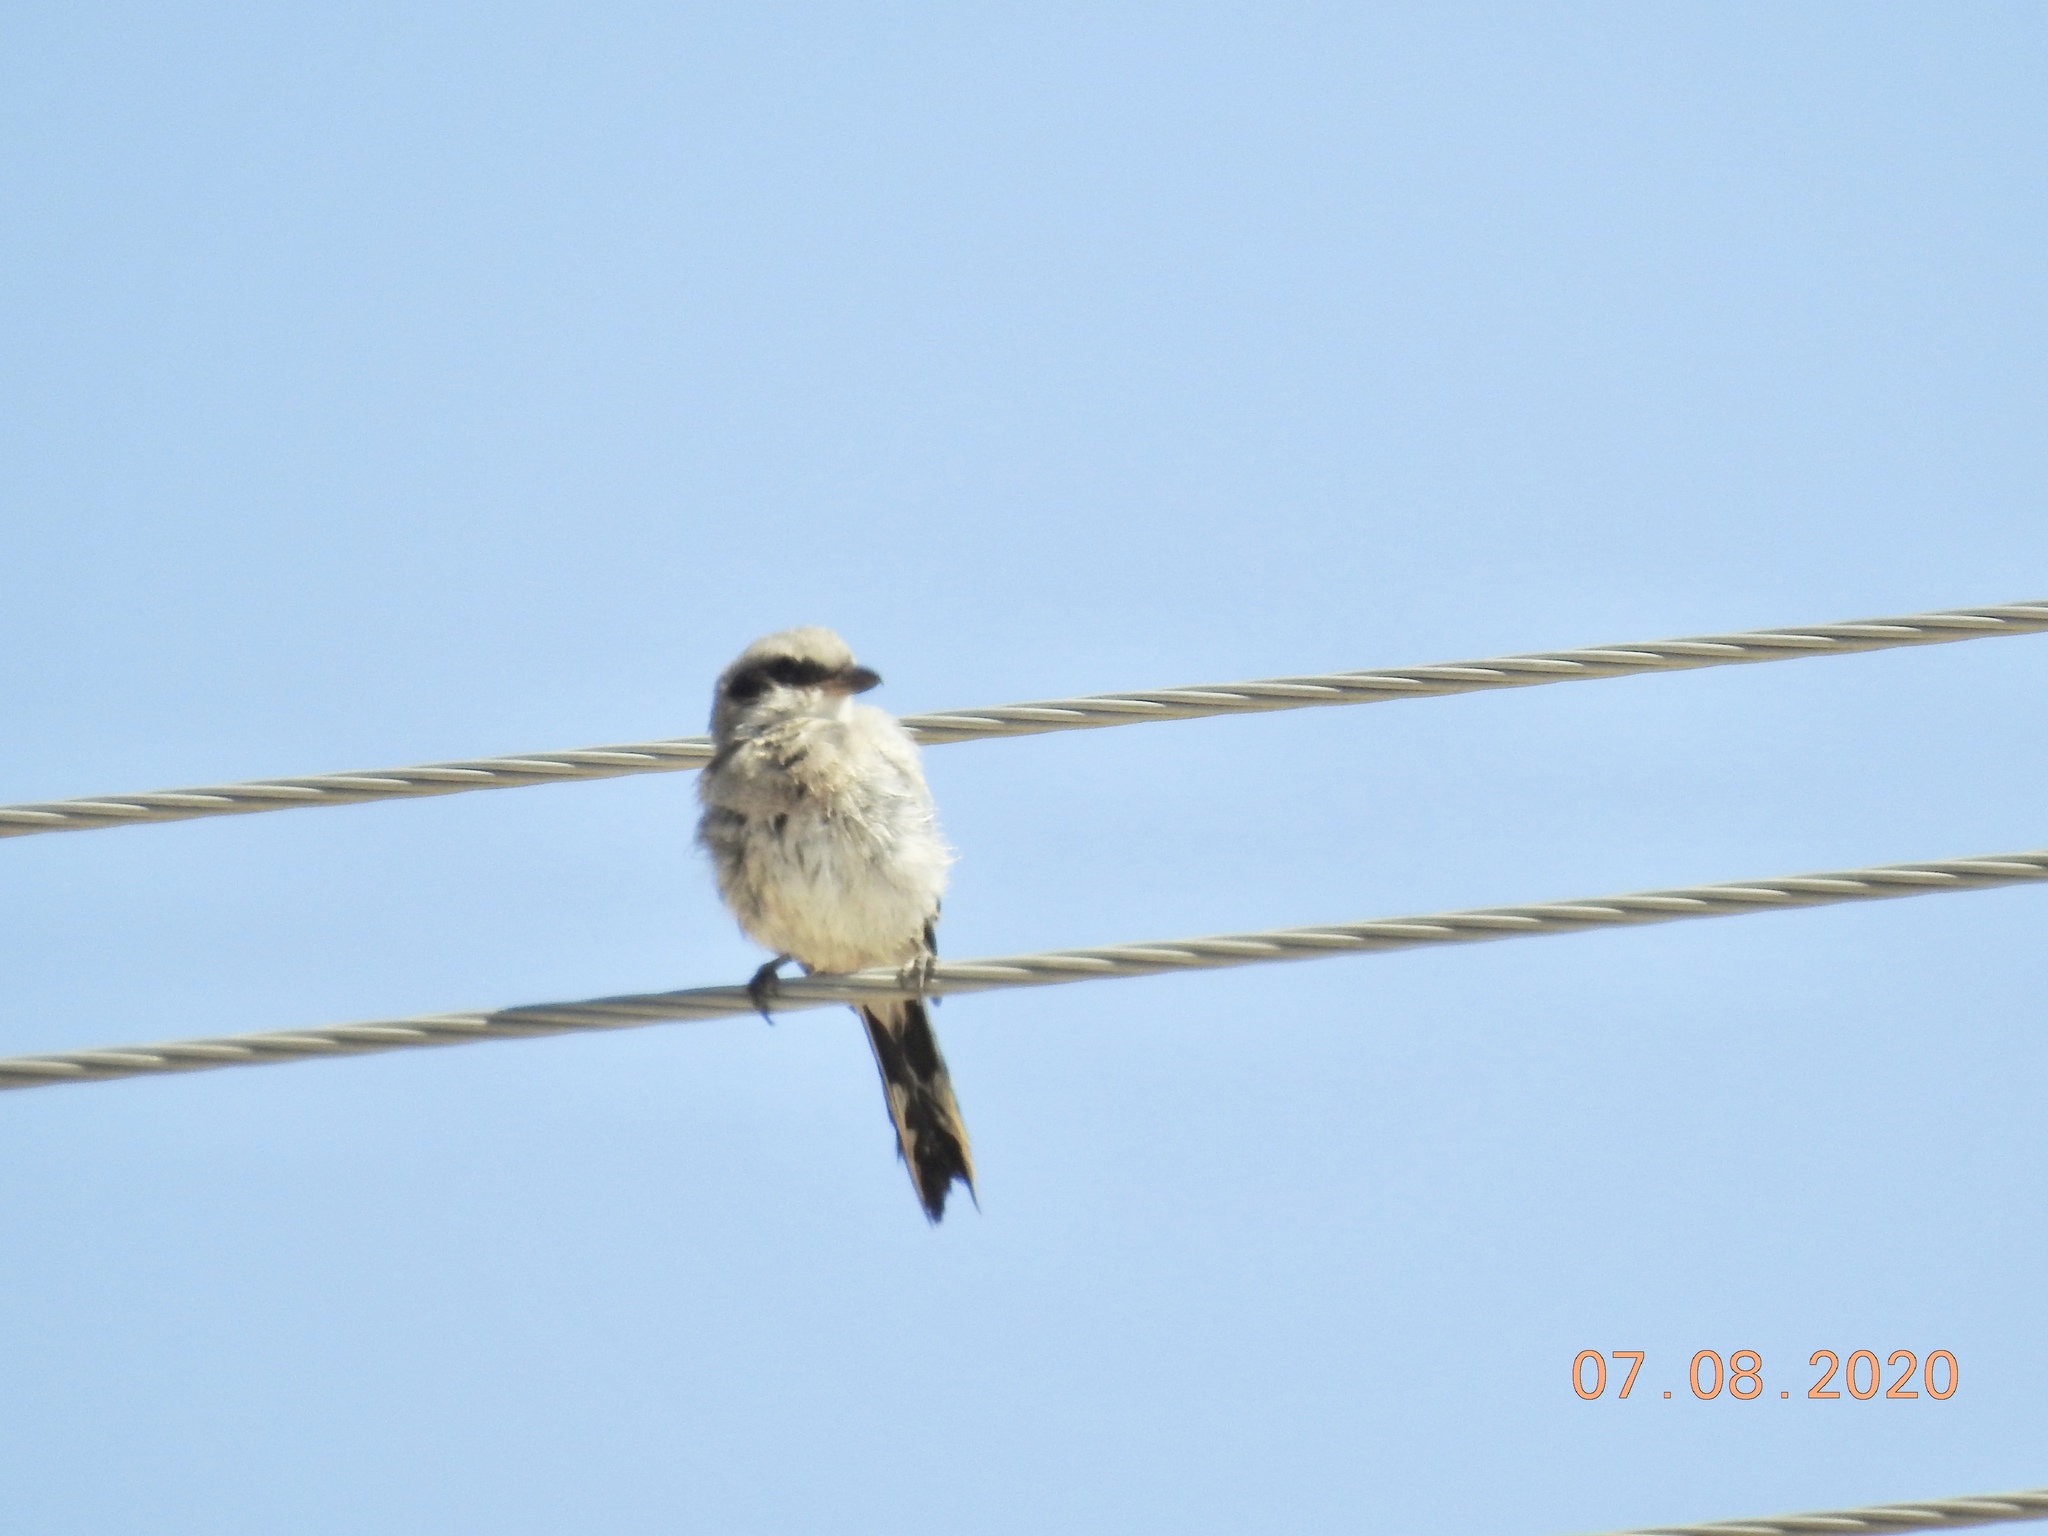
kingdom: Animalia
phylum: Chordata
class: Aves
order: Passeriformes
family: Laniidae
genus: Lanius
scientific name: Lanius ludovicianus
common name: Loggerhead shrike
